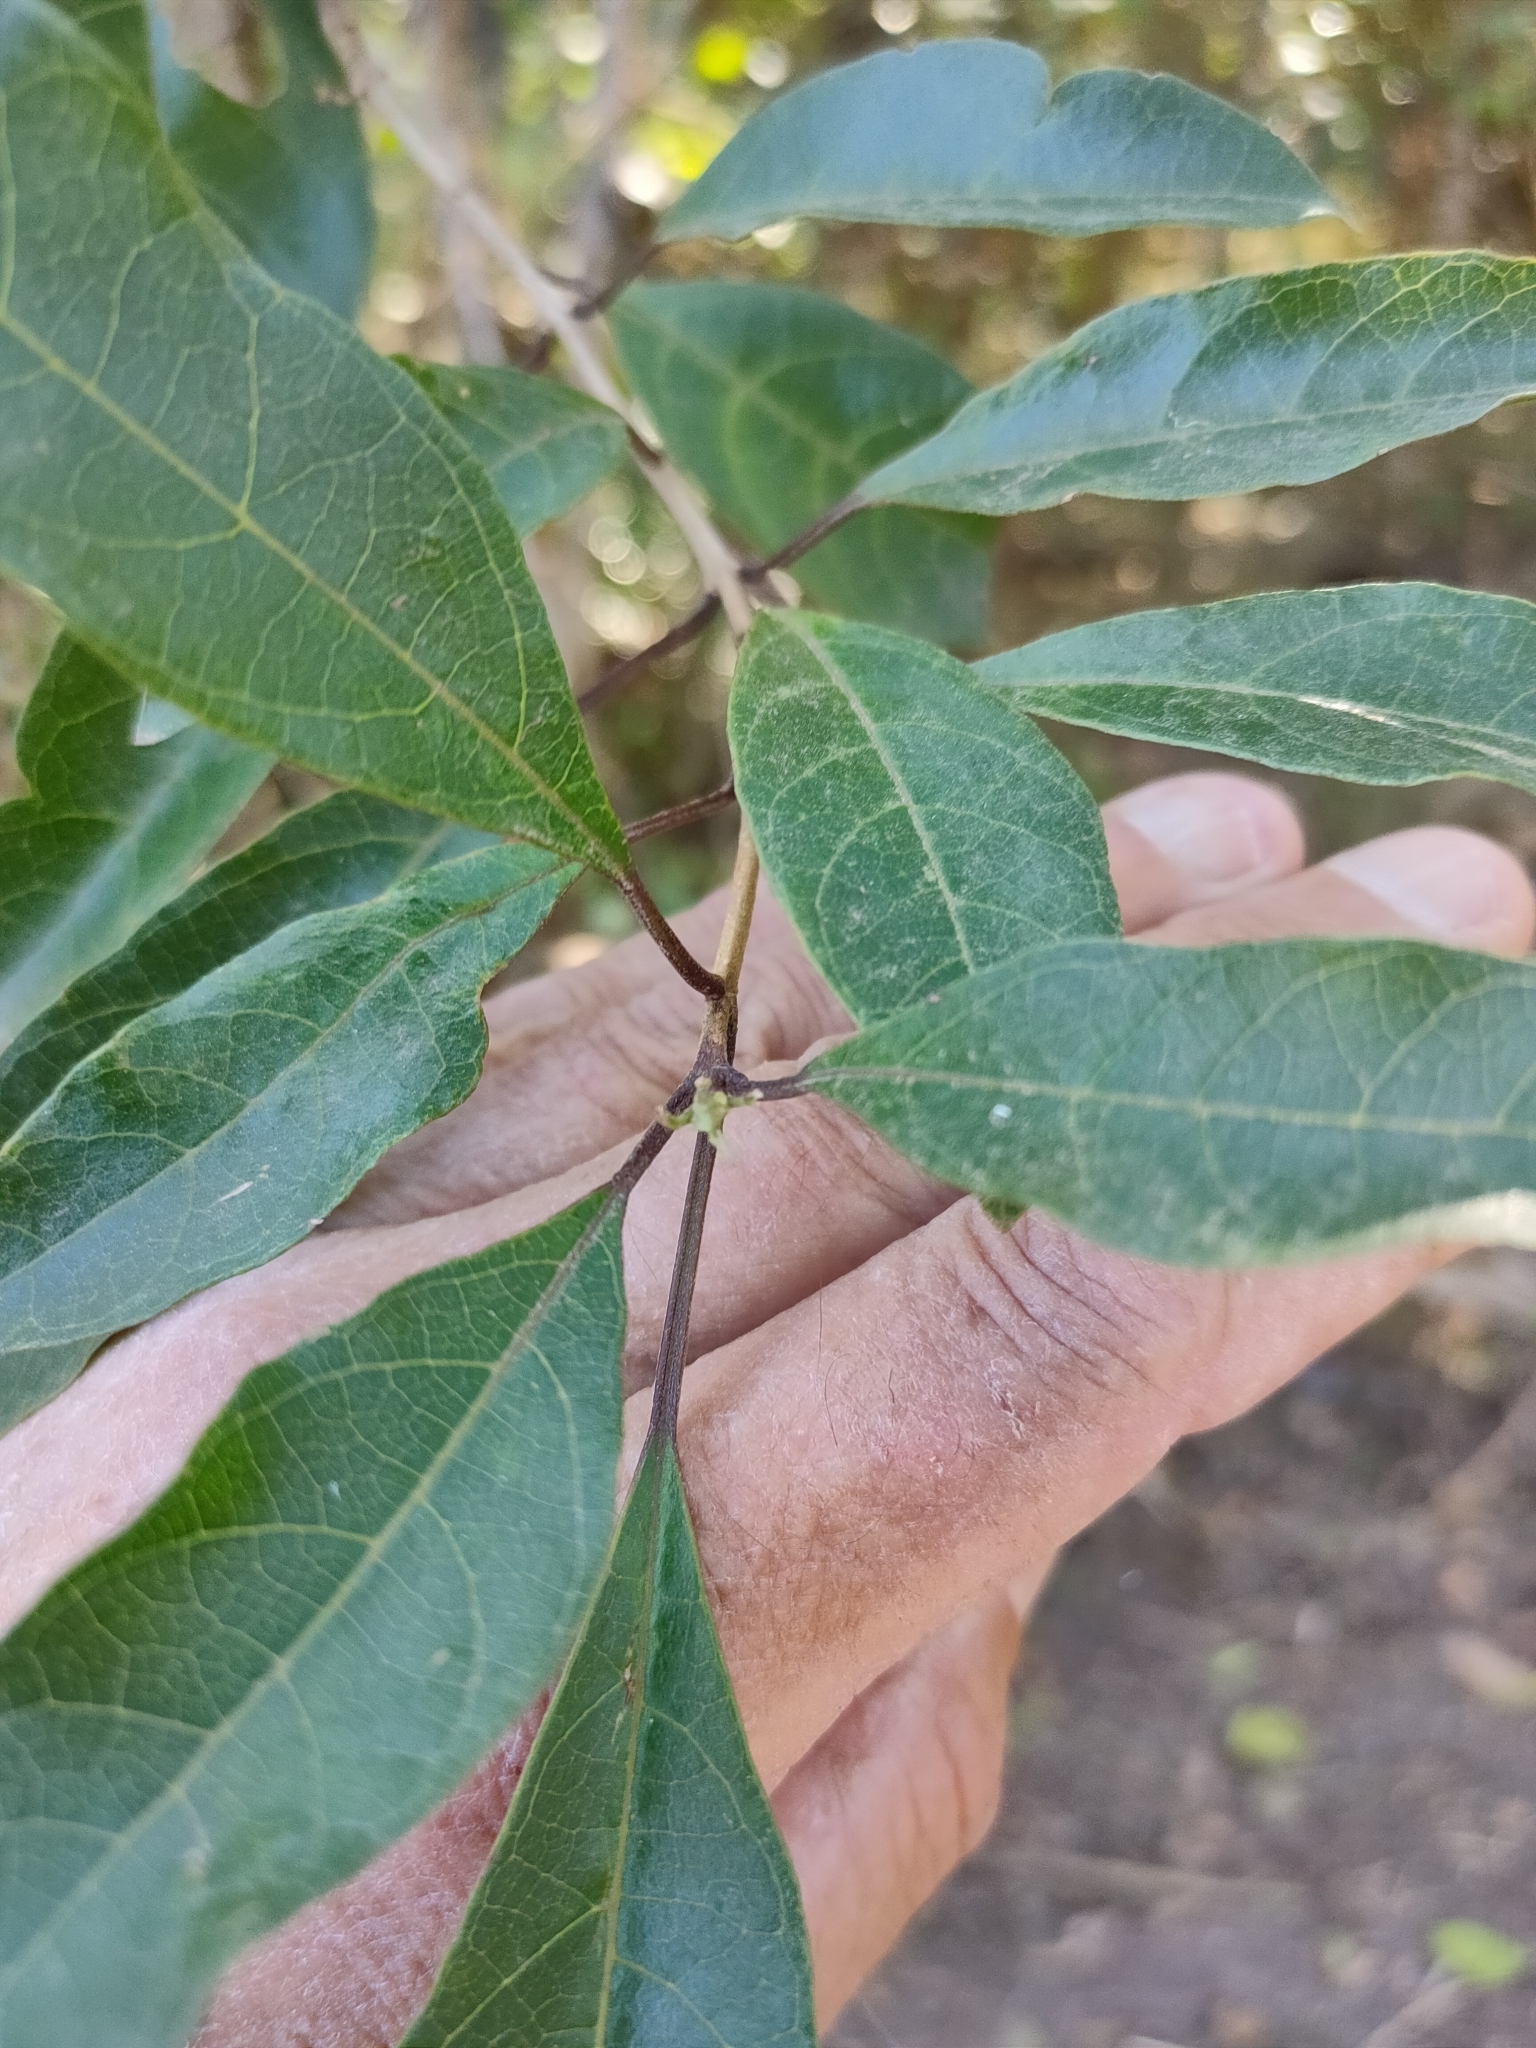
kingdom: Plantae
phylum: Tracheophyta
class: Magnoliopsida
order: Lamiales
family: Lamiaceae
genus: Clerodendrum
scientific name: Clerodendrum floribundum
